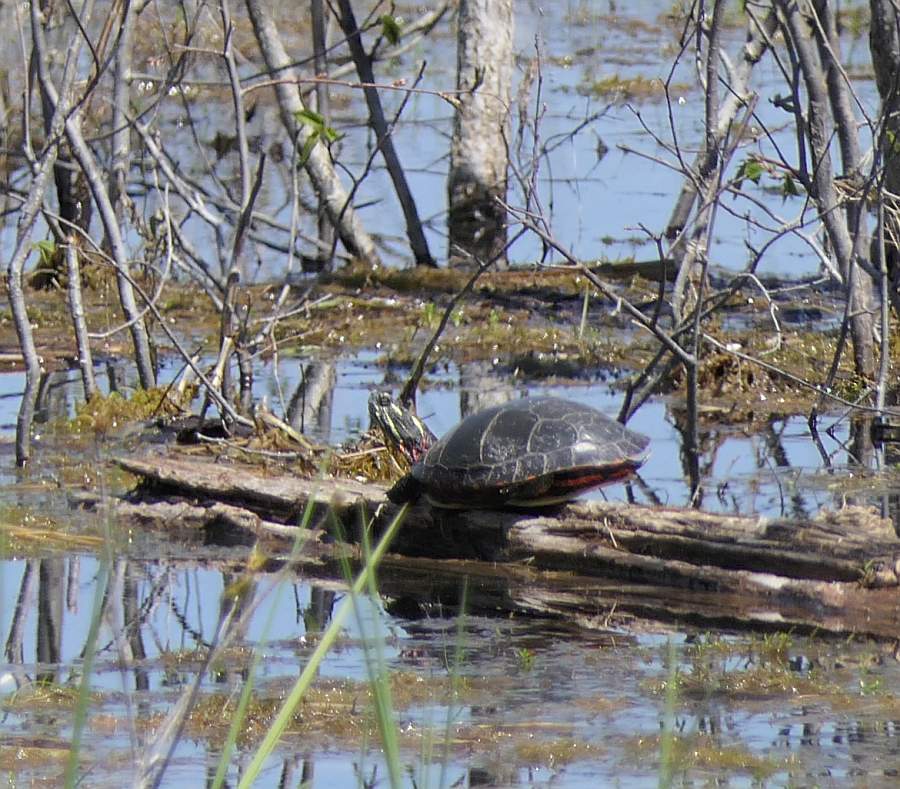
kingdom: Animalia
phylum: Chordata
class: Testudines
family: Emydidae
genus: Chrysemys
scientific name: Chrysemys picta
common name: Painted turtle
